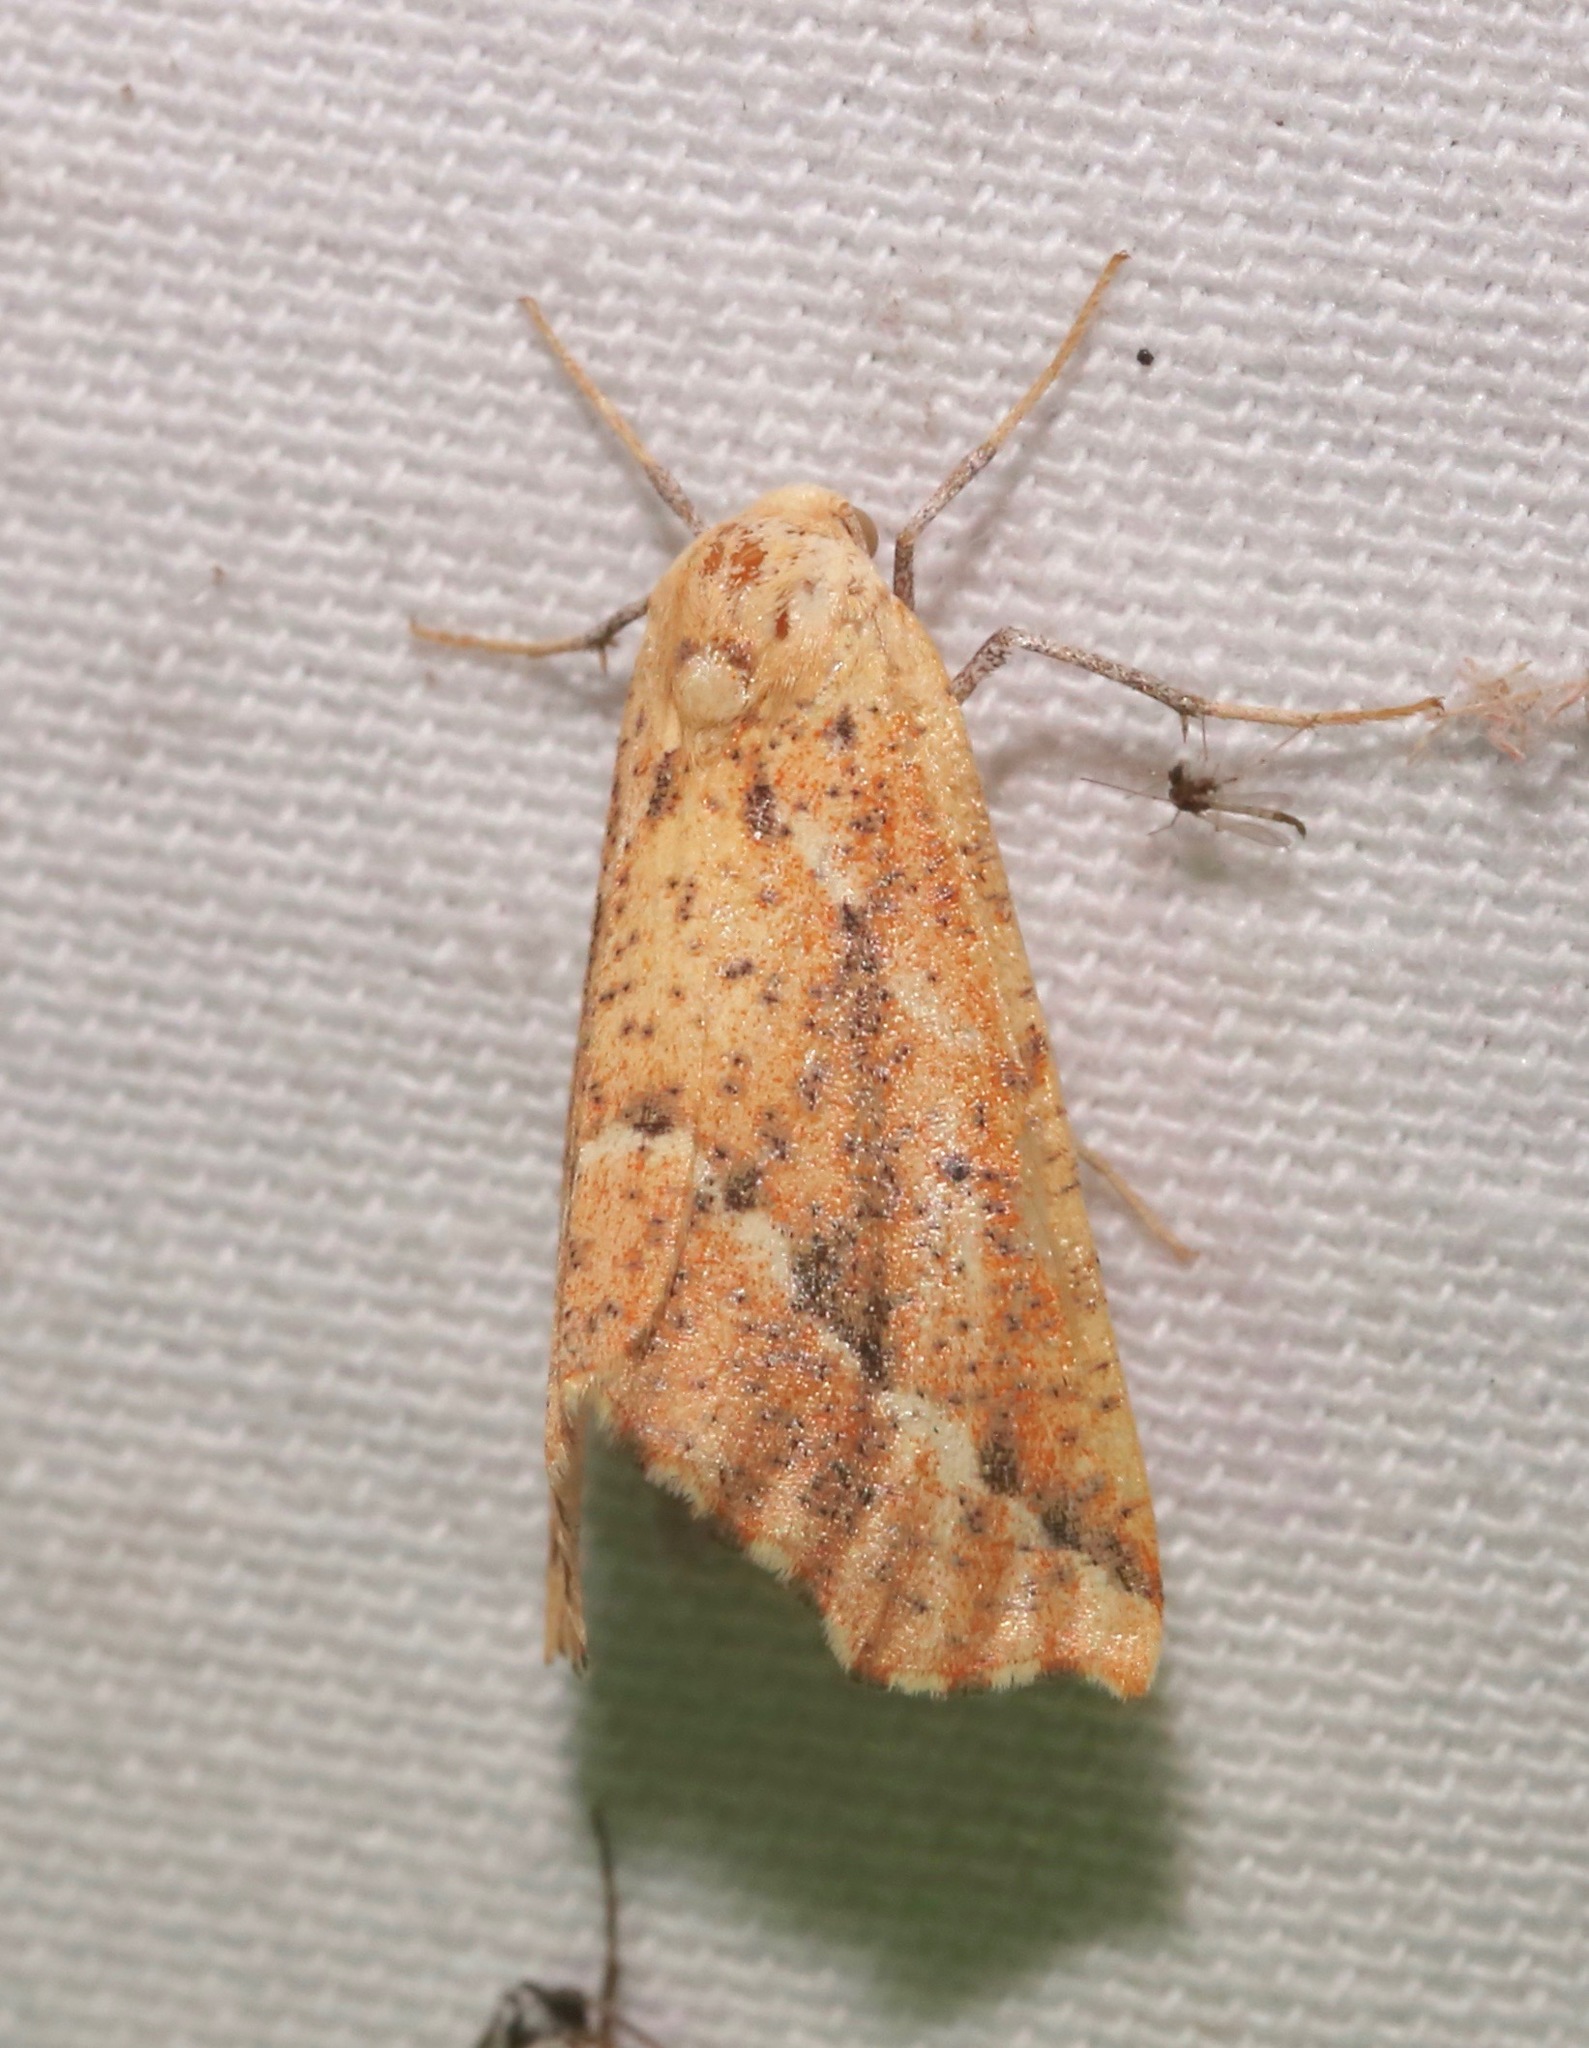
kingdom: Animalia
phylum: Arthropoda
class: Insecta
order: Lepidoptera
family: Geometridae
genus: Sicya
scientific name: Sicya morsicaria
